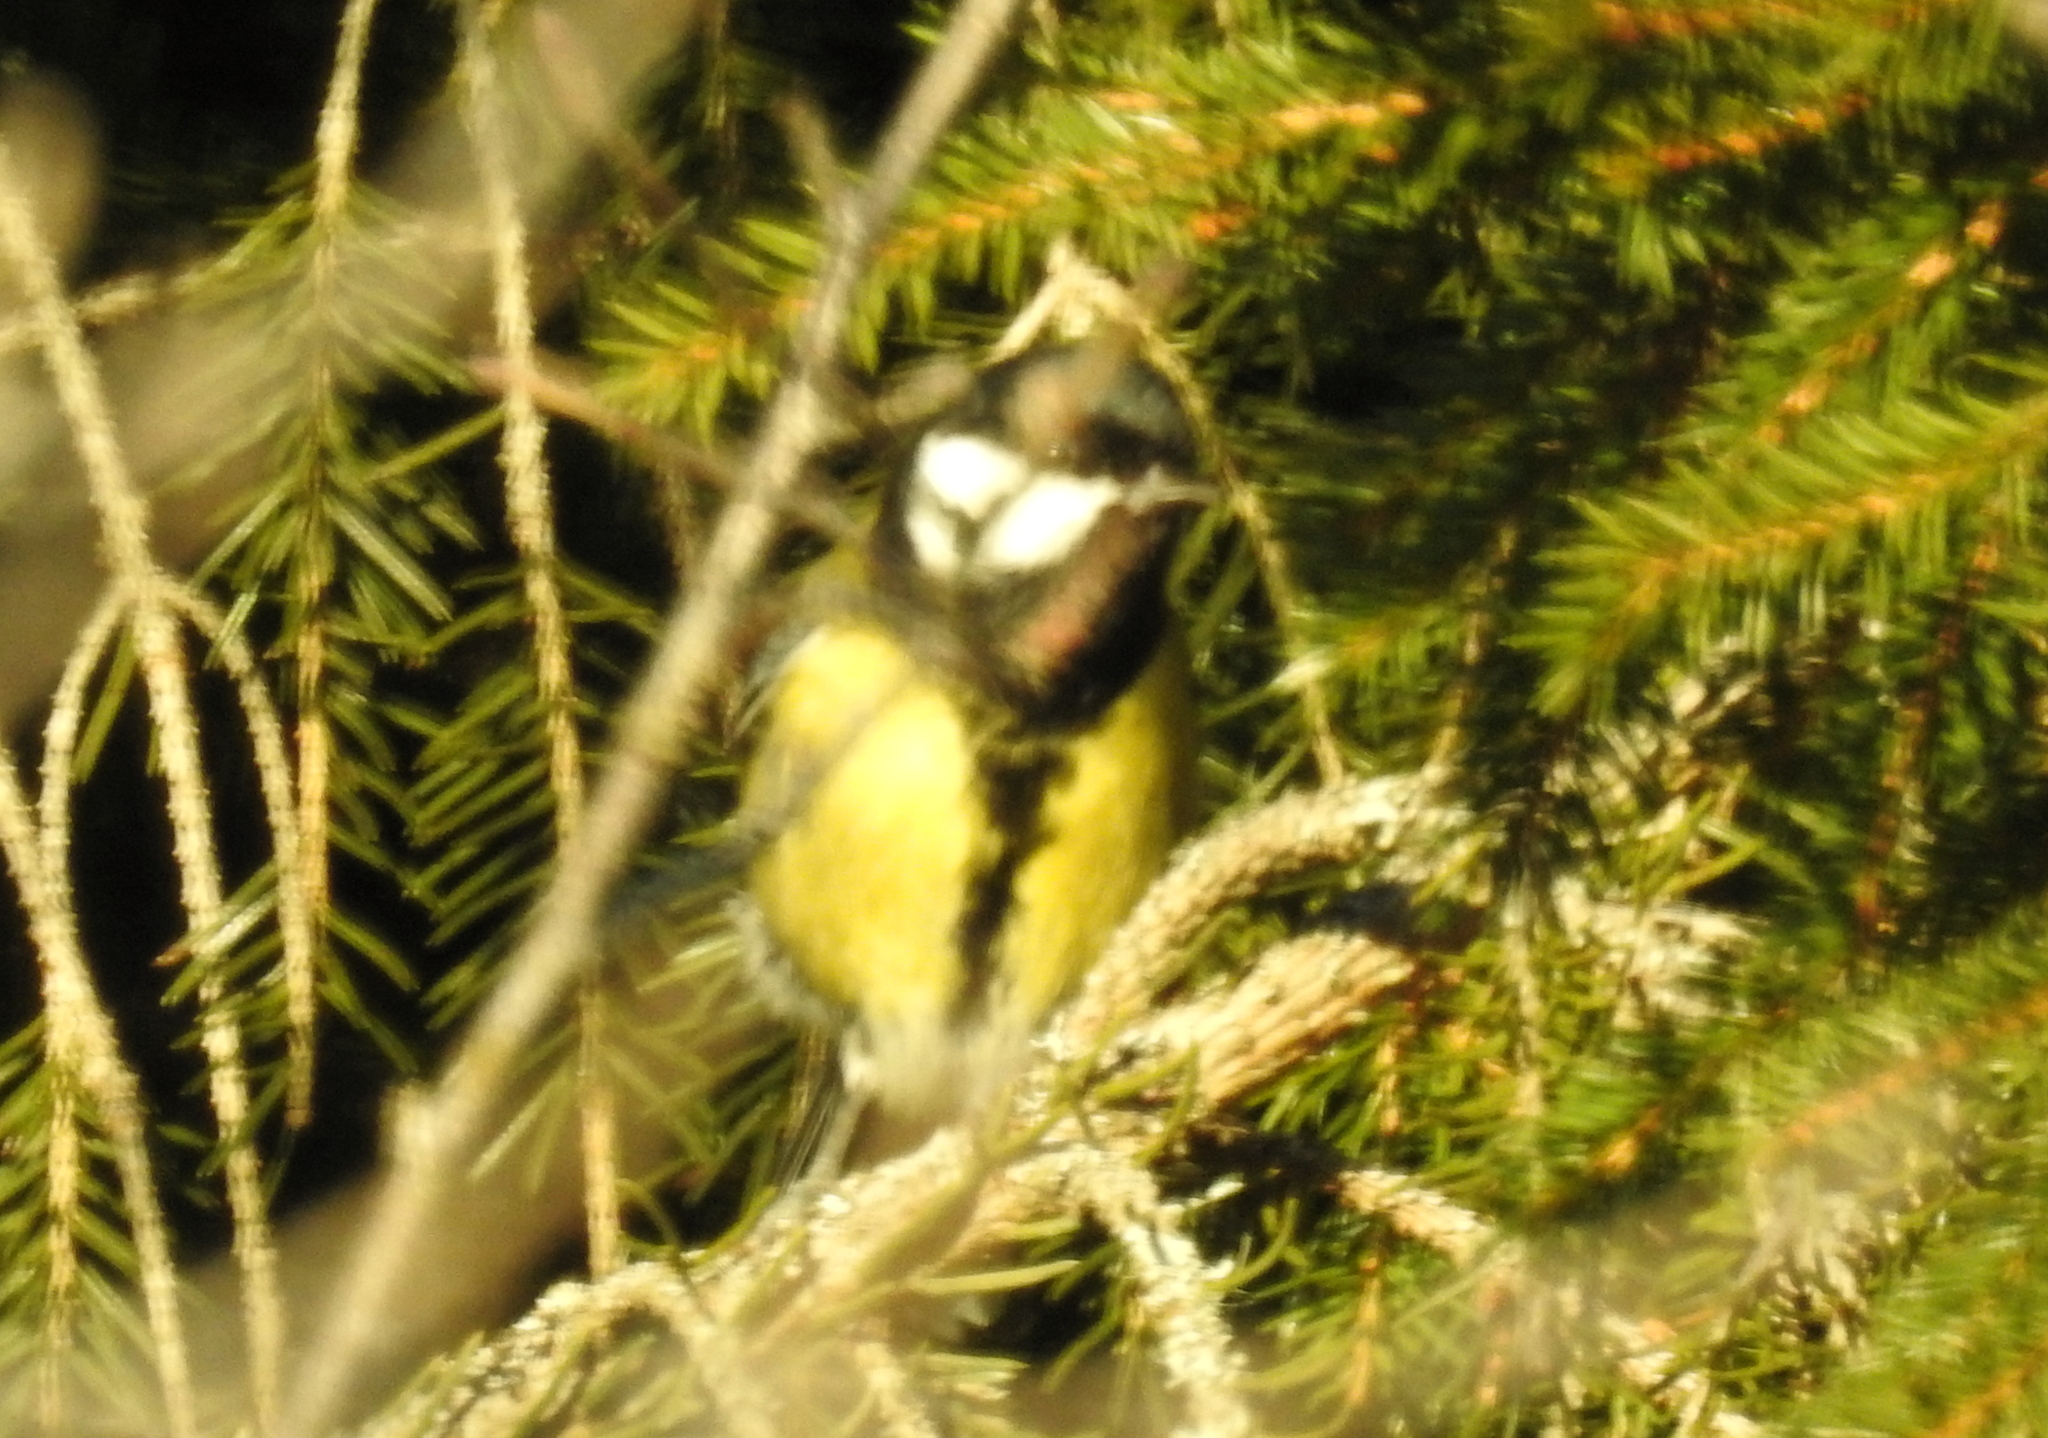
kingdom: Animalia
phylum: Chordata
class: Aves
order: Passeriformes
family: Paridae
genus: Parus
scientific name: Parus major
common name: Great tit
